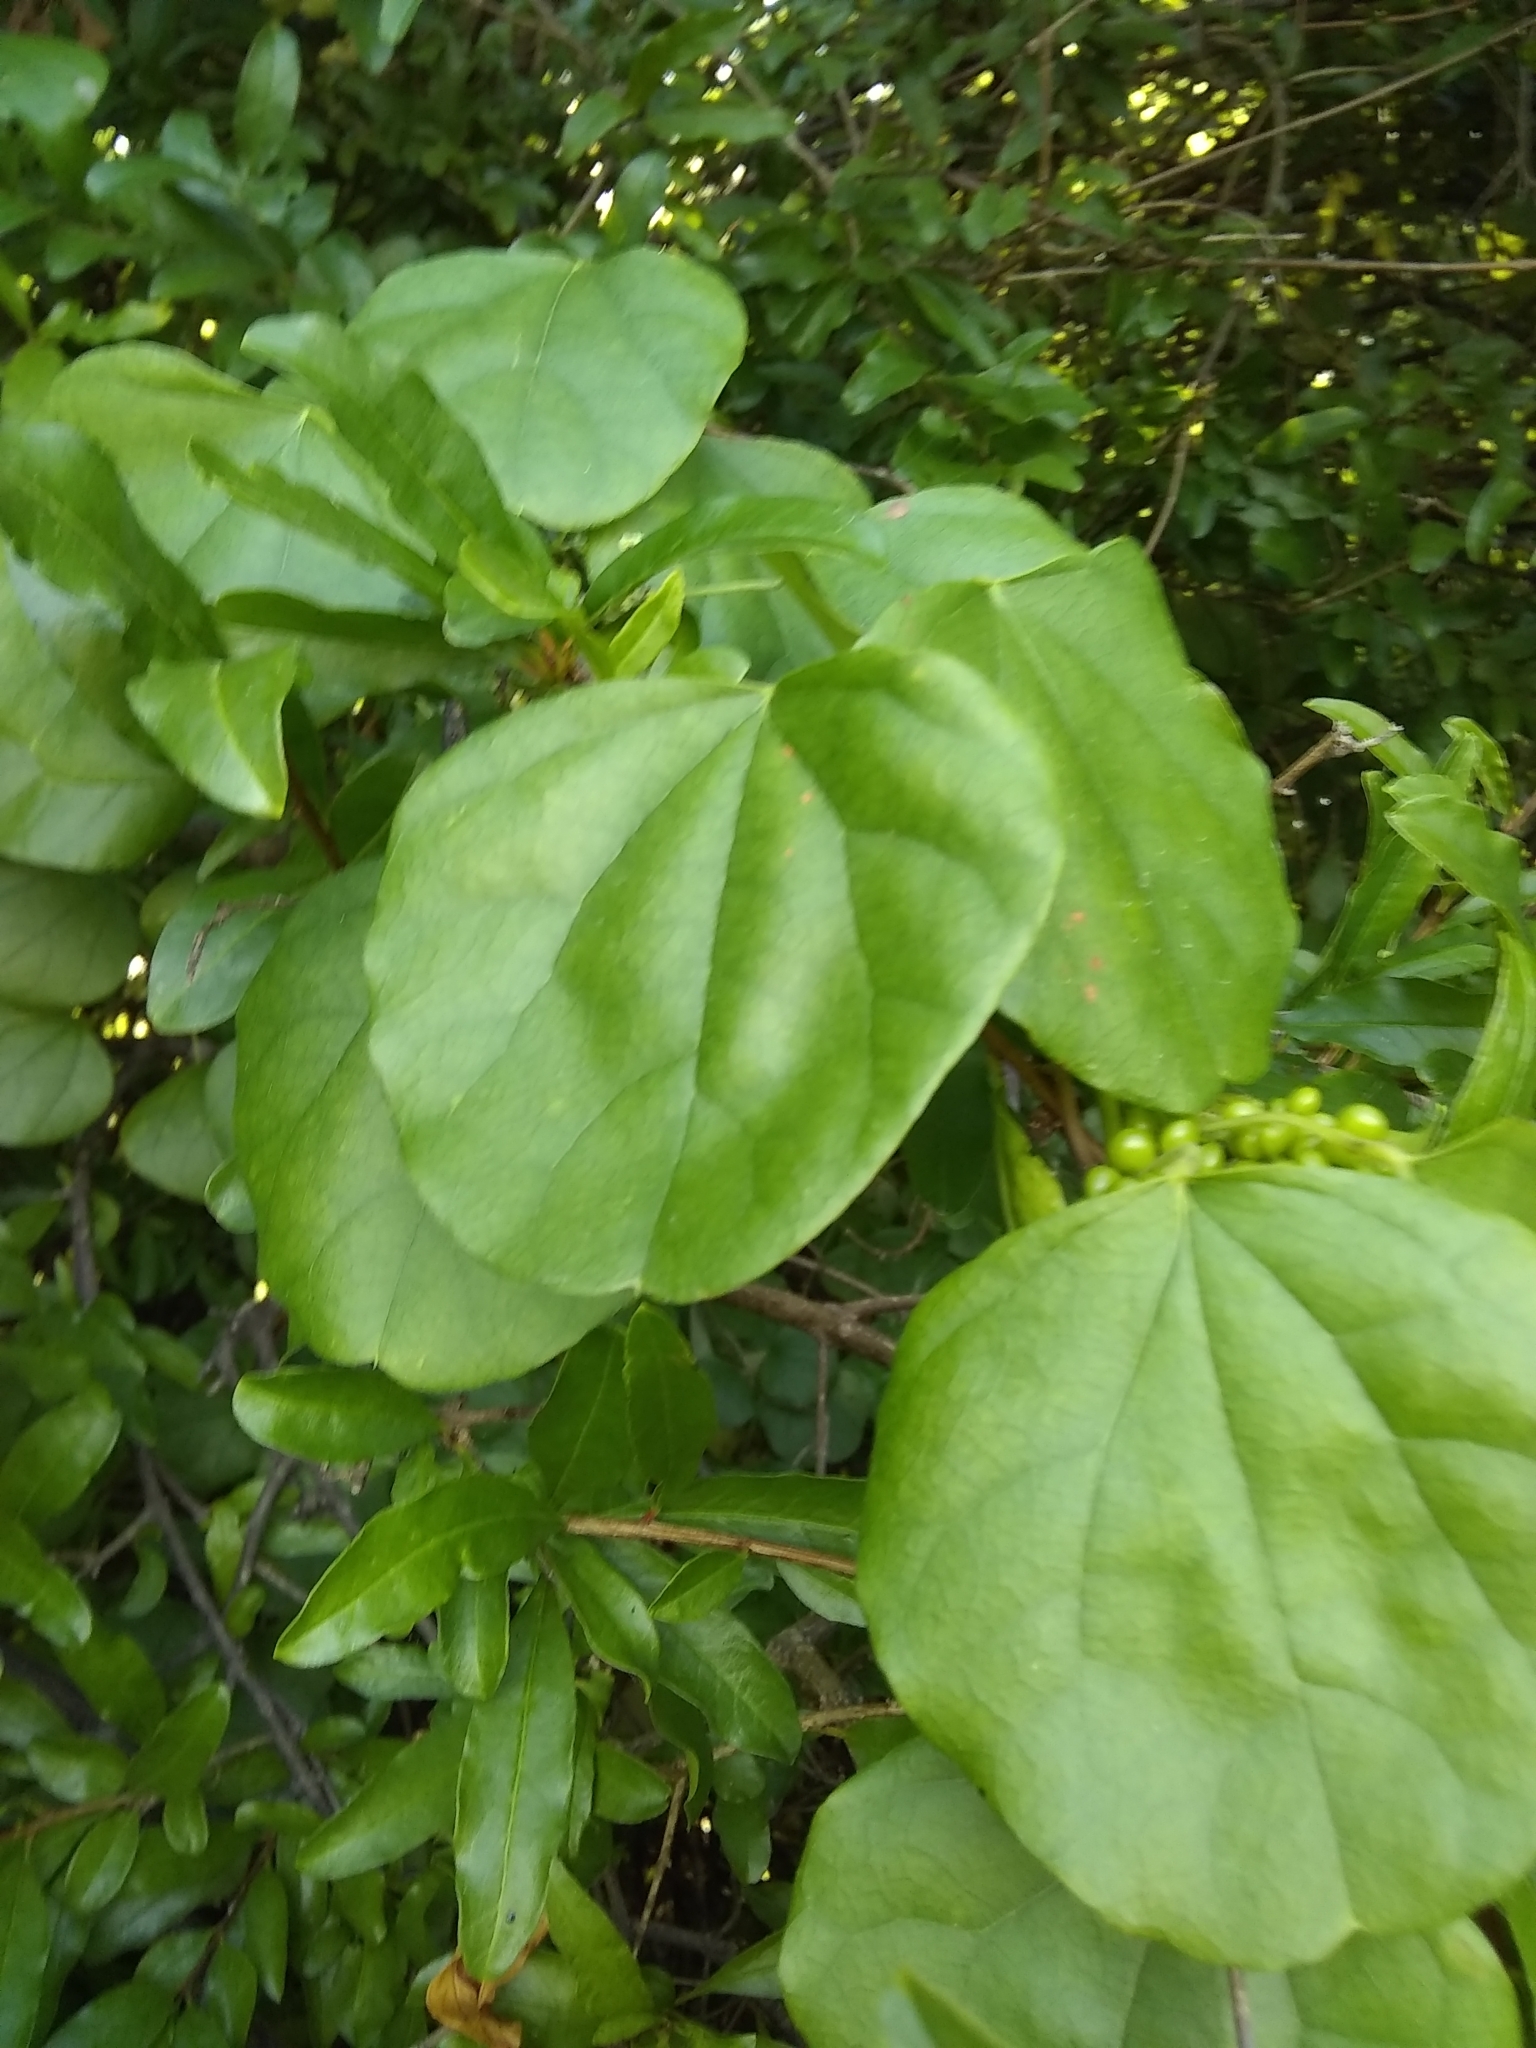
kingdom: Plantae
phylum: Tracheophyta
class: Magnoliopsida
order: Ranunculales
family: Menispermaceae
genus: Cocculus
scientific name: Cocculus carolinus
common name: Carolina moonseed
